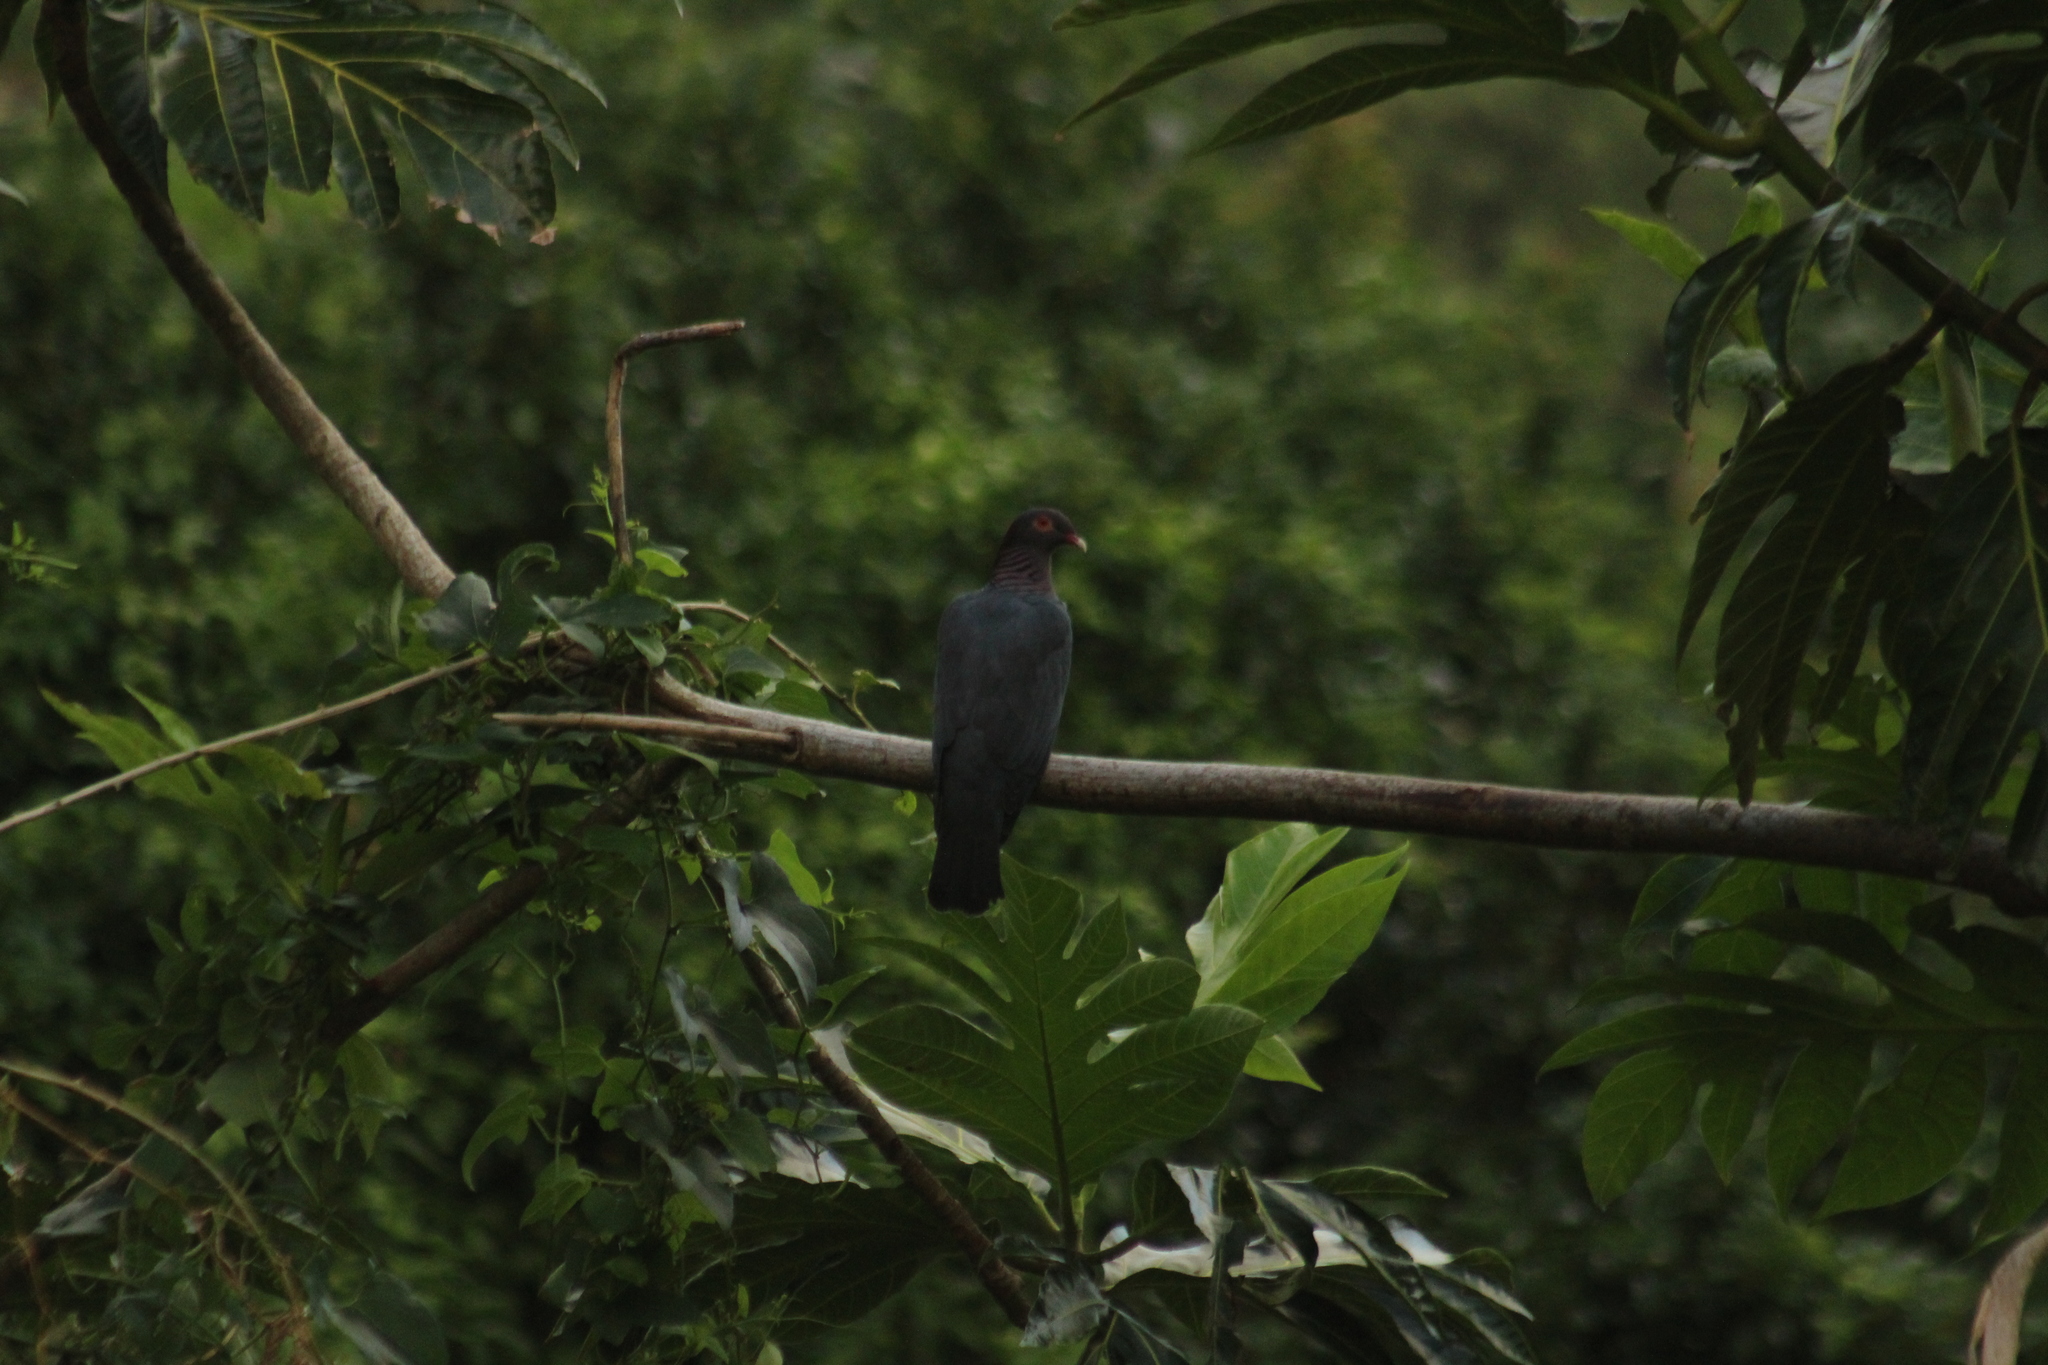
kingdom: Animalia
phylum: Chordata
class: Aves
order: Columbiformes
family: Columbidae
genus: Patagioenas
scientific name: Patagioenas squamosa
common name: Scaly-naped pigeon
